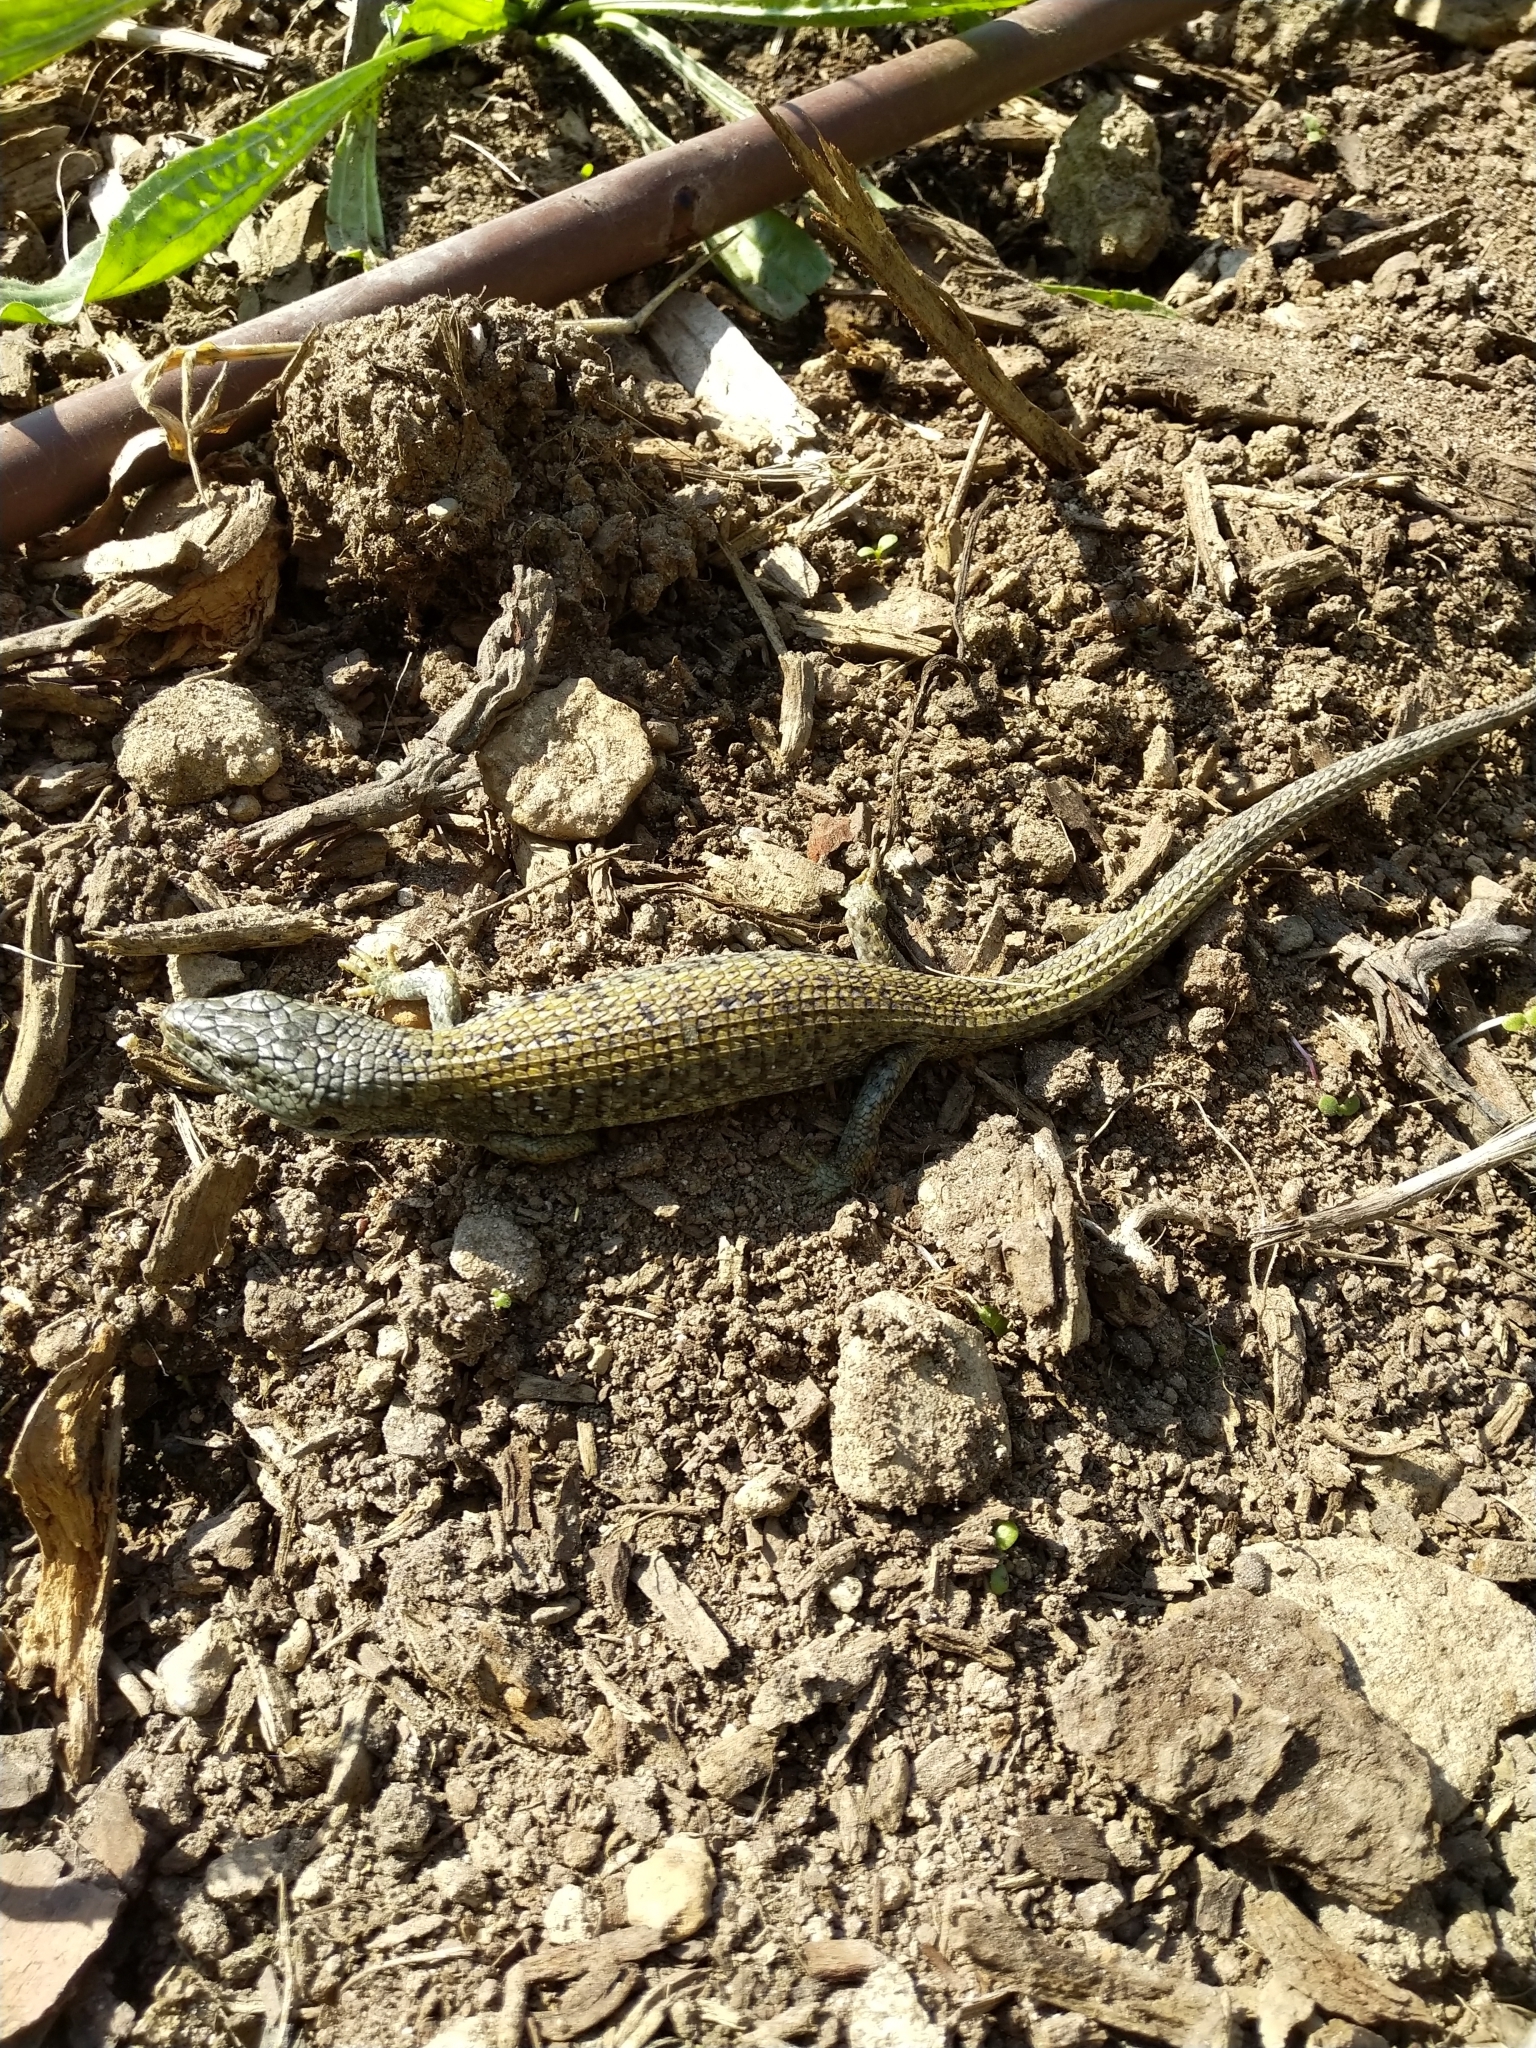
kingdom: Animalia
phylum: Chordata
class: Squamata
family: Anguidae
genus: Elgaria
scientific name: Elgaria coerulea
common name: Northern alligator lizard
